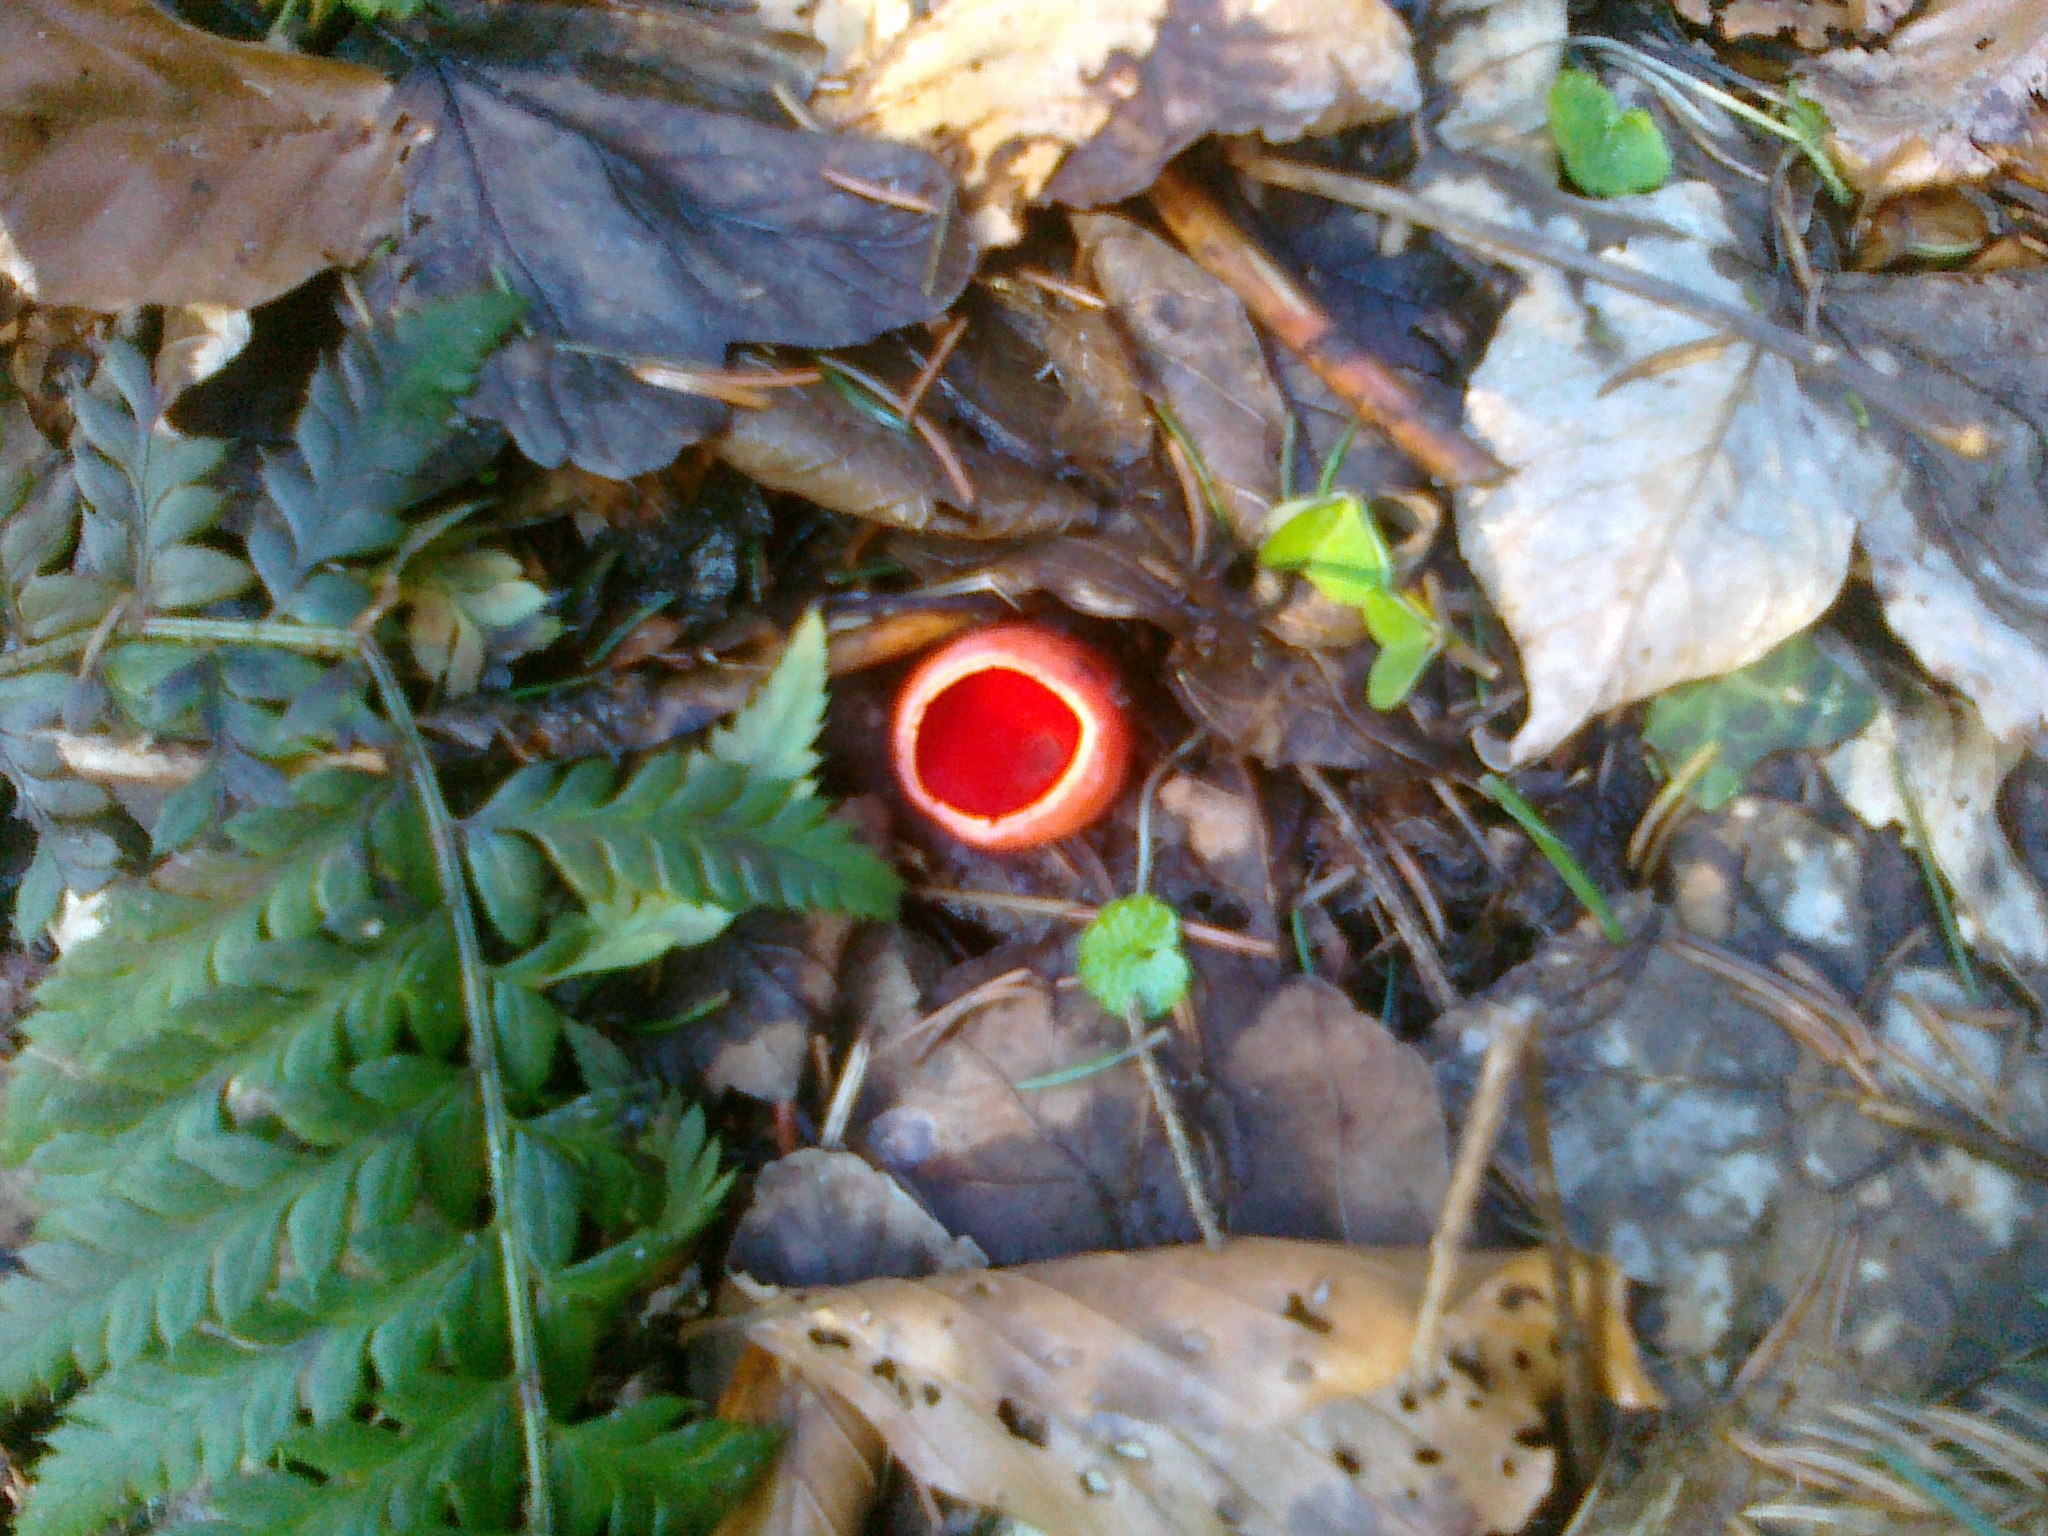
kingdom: Fungi
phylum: Ascomycota
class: Pezizomycetes
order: Pezizales
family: Sarcoscyphaceae
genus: Sarcoscypha
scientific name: Sarcoscypha
